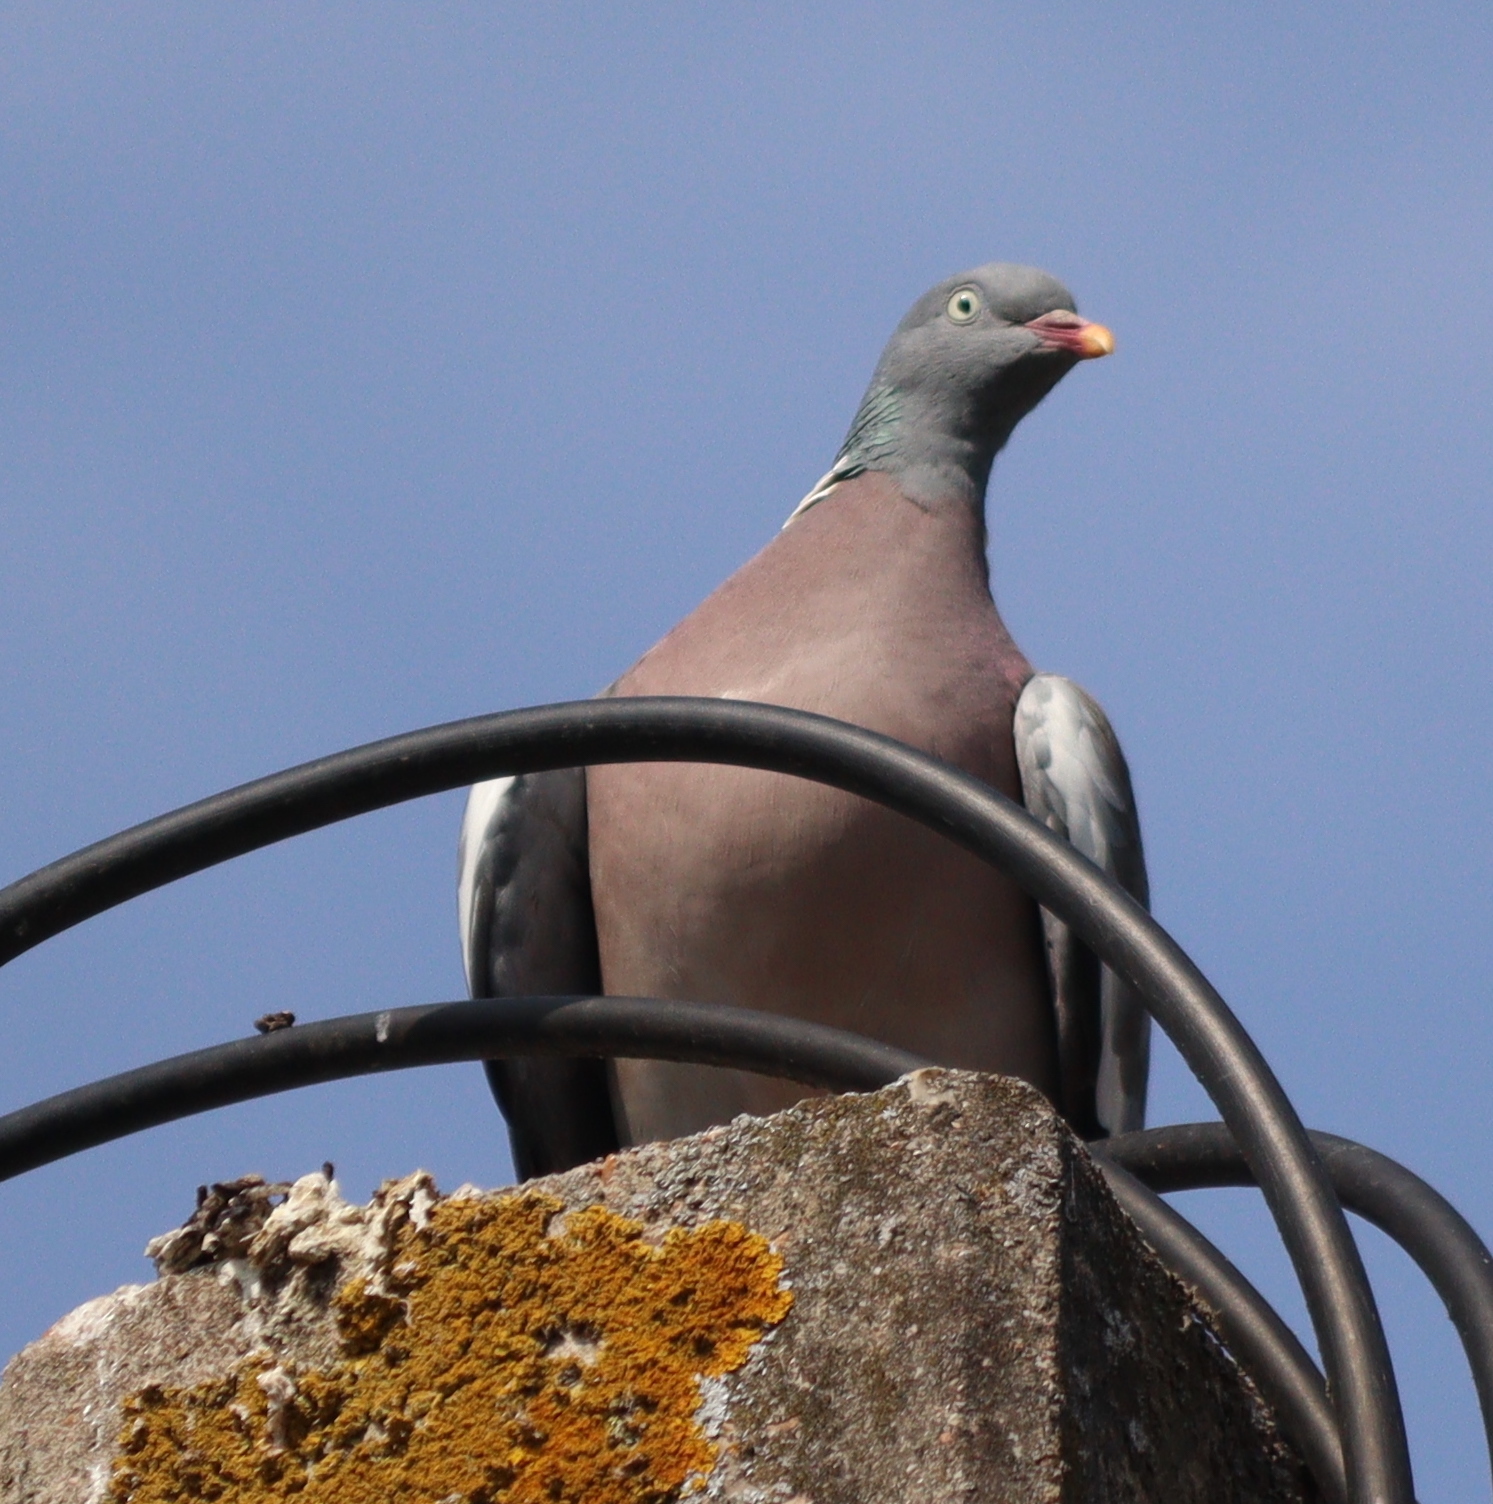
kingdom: Animalia
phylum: Chordata
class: Aves
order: Columbiformes
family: Columbidae
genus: Columba
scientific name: Columba palumbus
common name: Common wood pigeon
